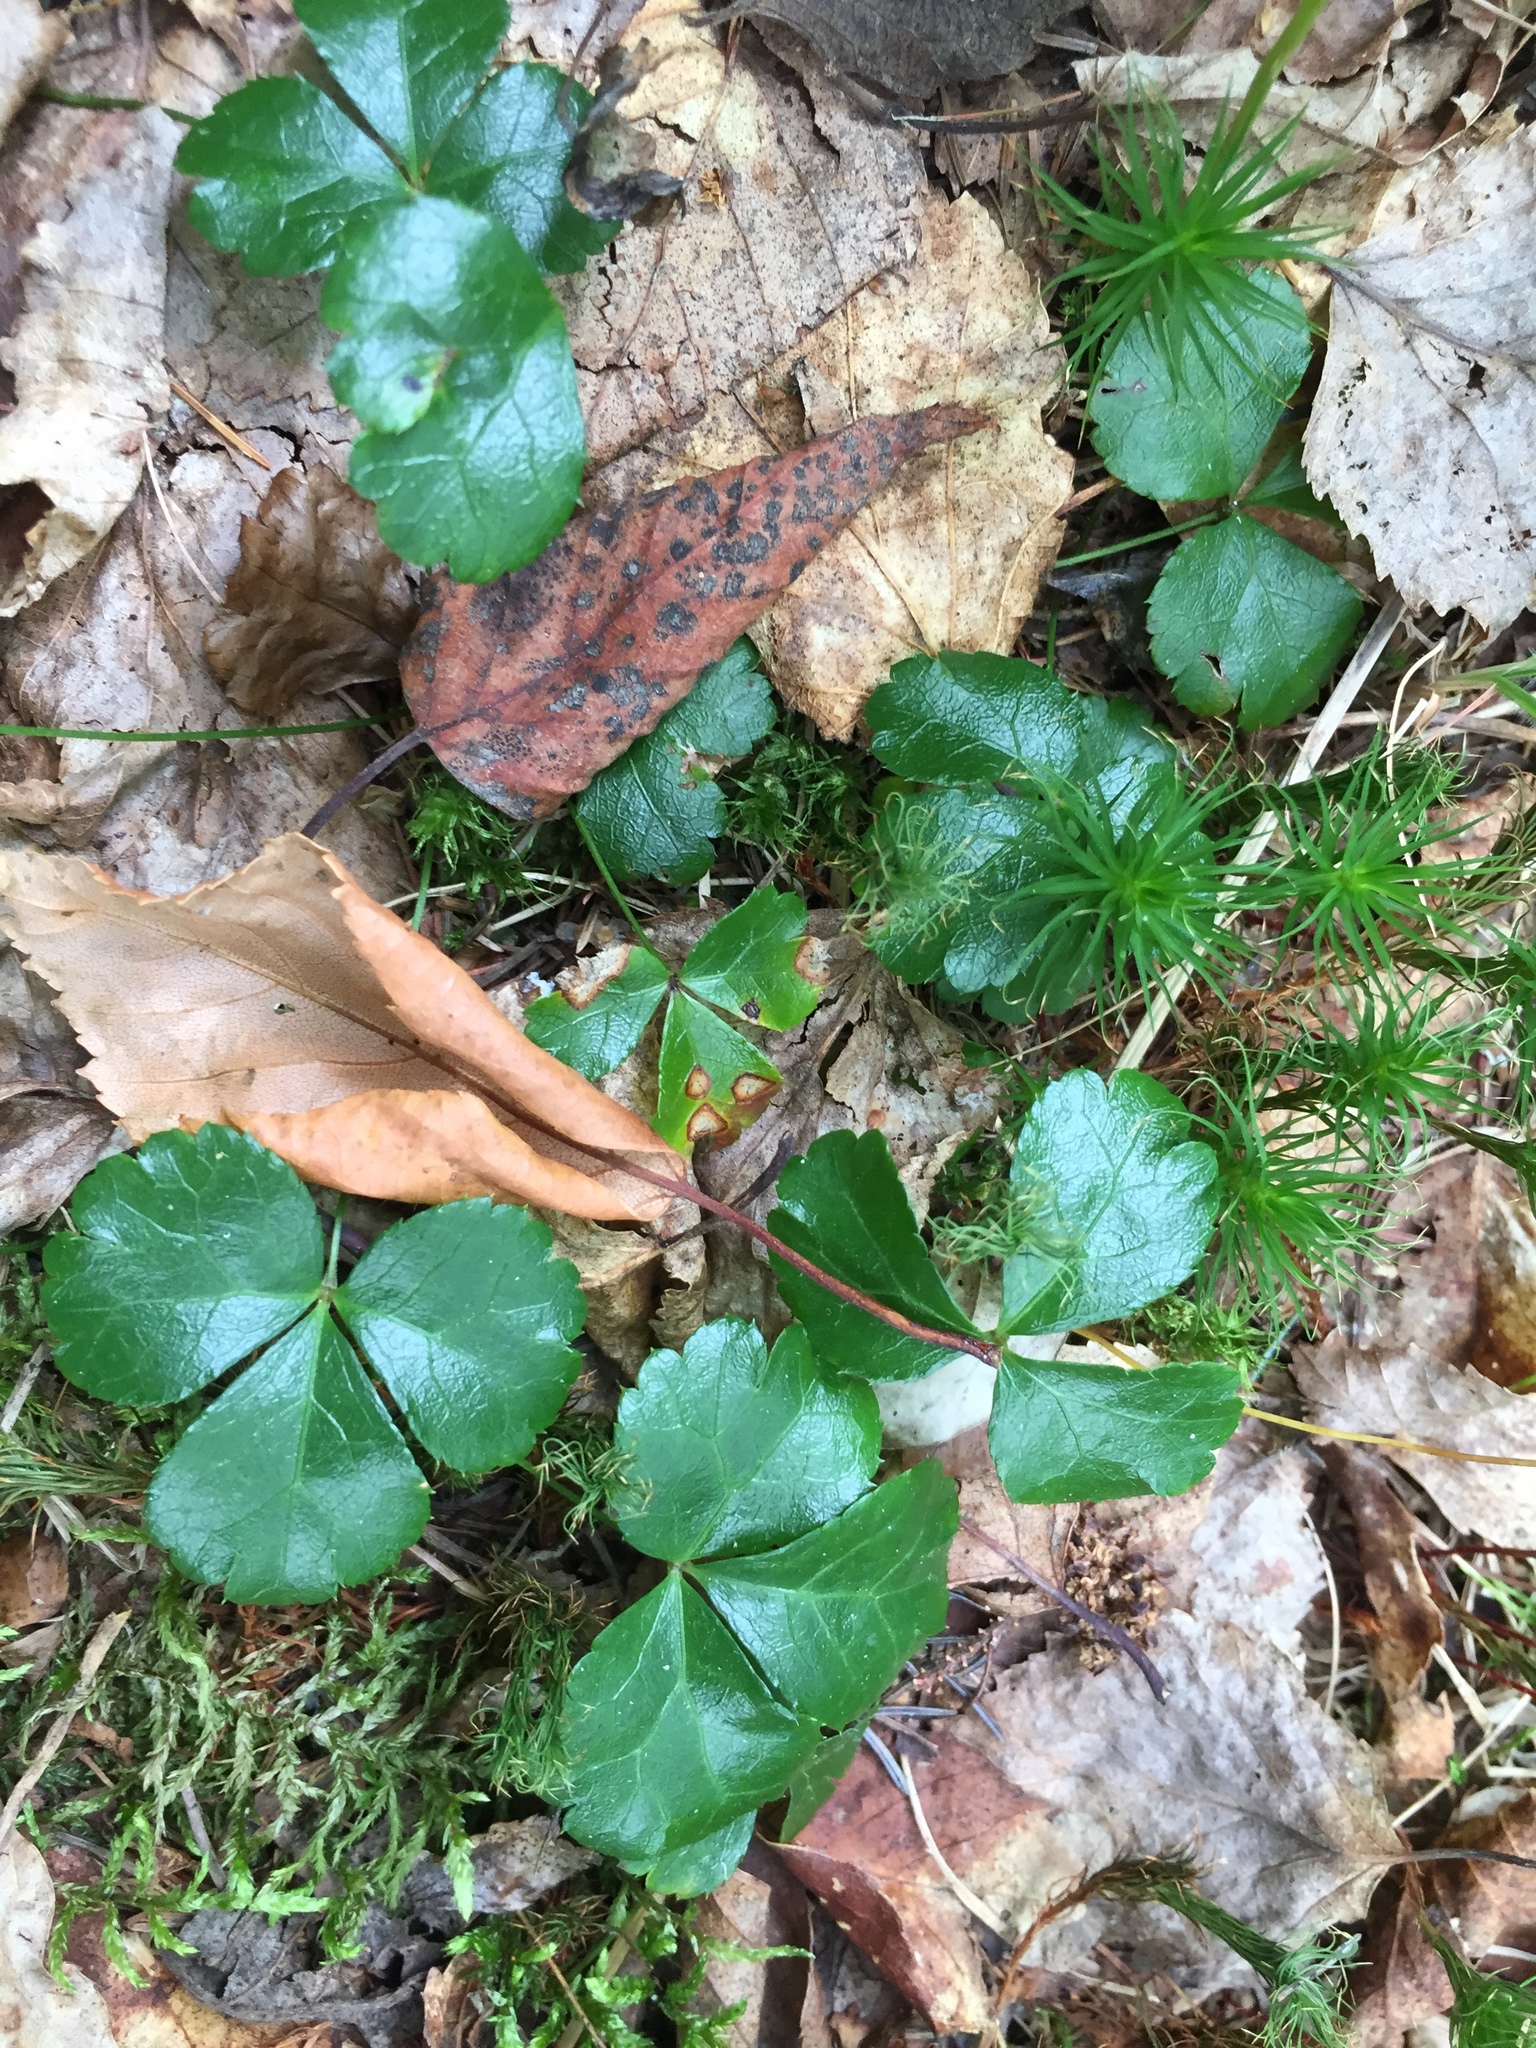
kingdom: Plantae
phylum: Tracheophyta
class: Magnoliopsida
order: Ranunculales
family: Ranunculaceae
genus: Coptis
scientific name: Coptis trifolia
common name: Canker-root
